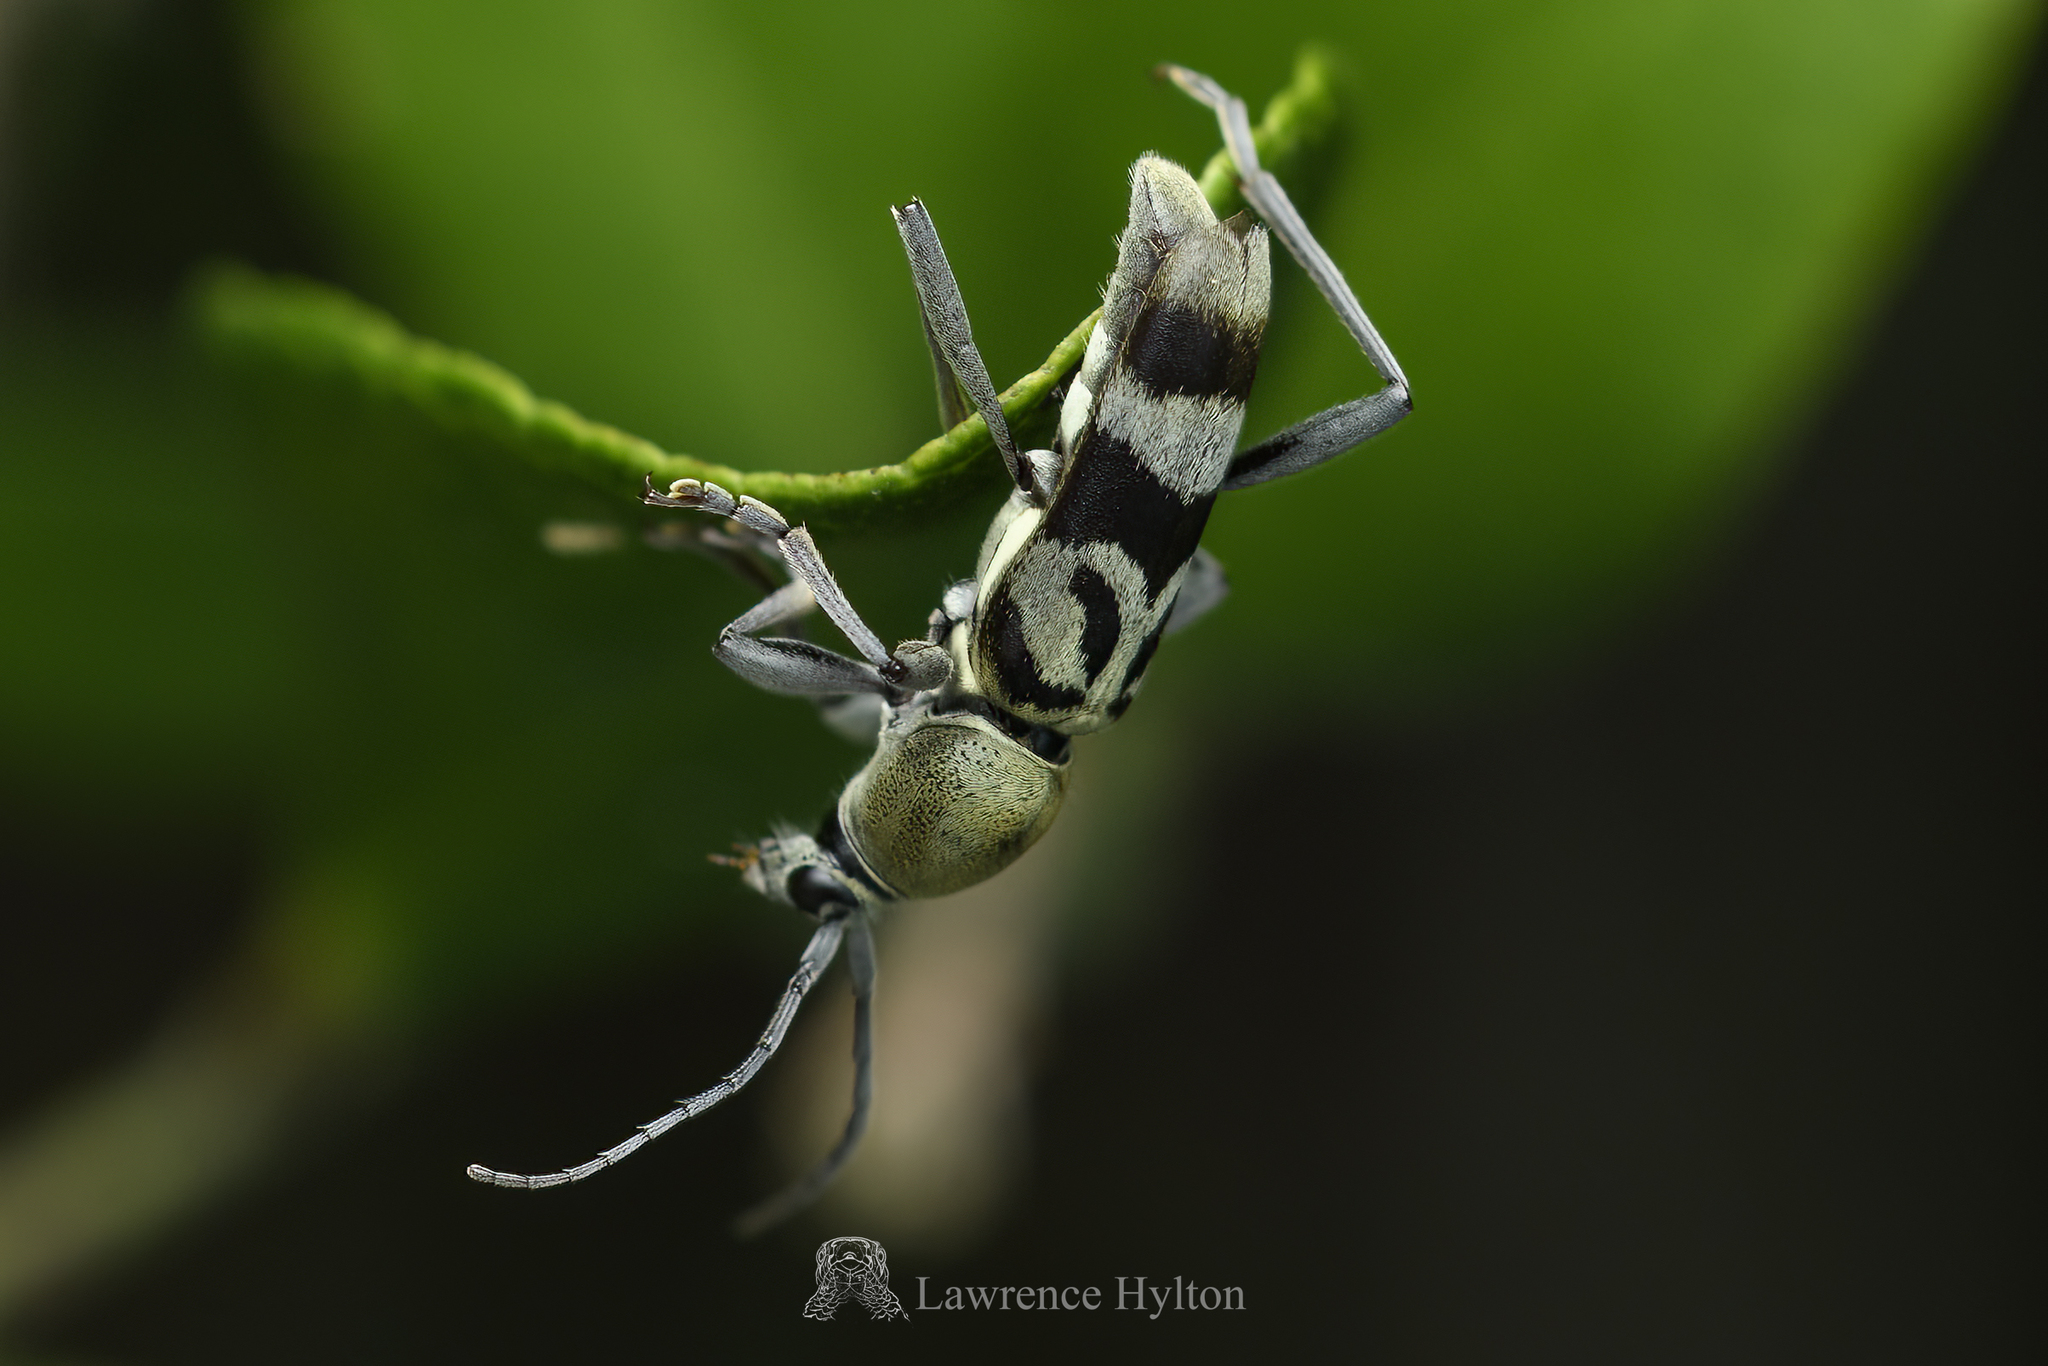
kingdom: Animalia
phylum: Arthropoda
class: Insecta
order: Coleoptera
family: Cerambycidae
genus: Chlorophorus
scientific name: Chlorophorus douei
